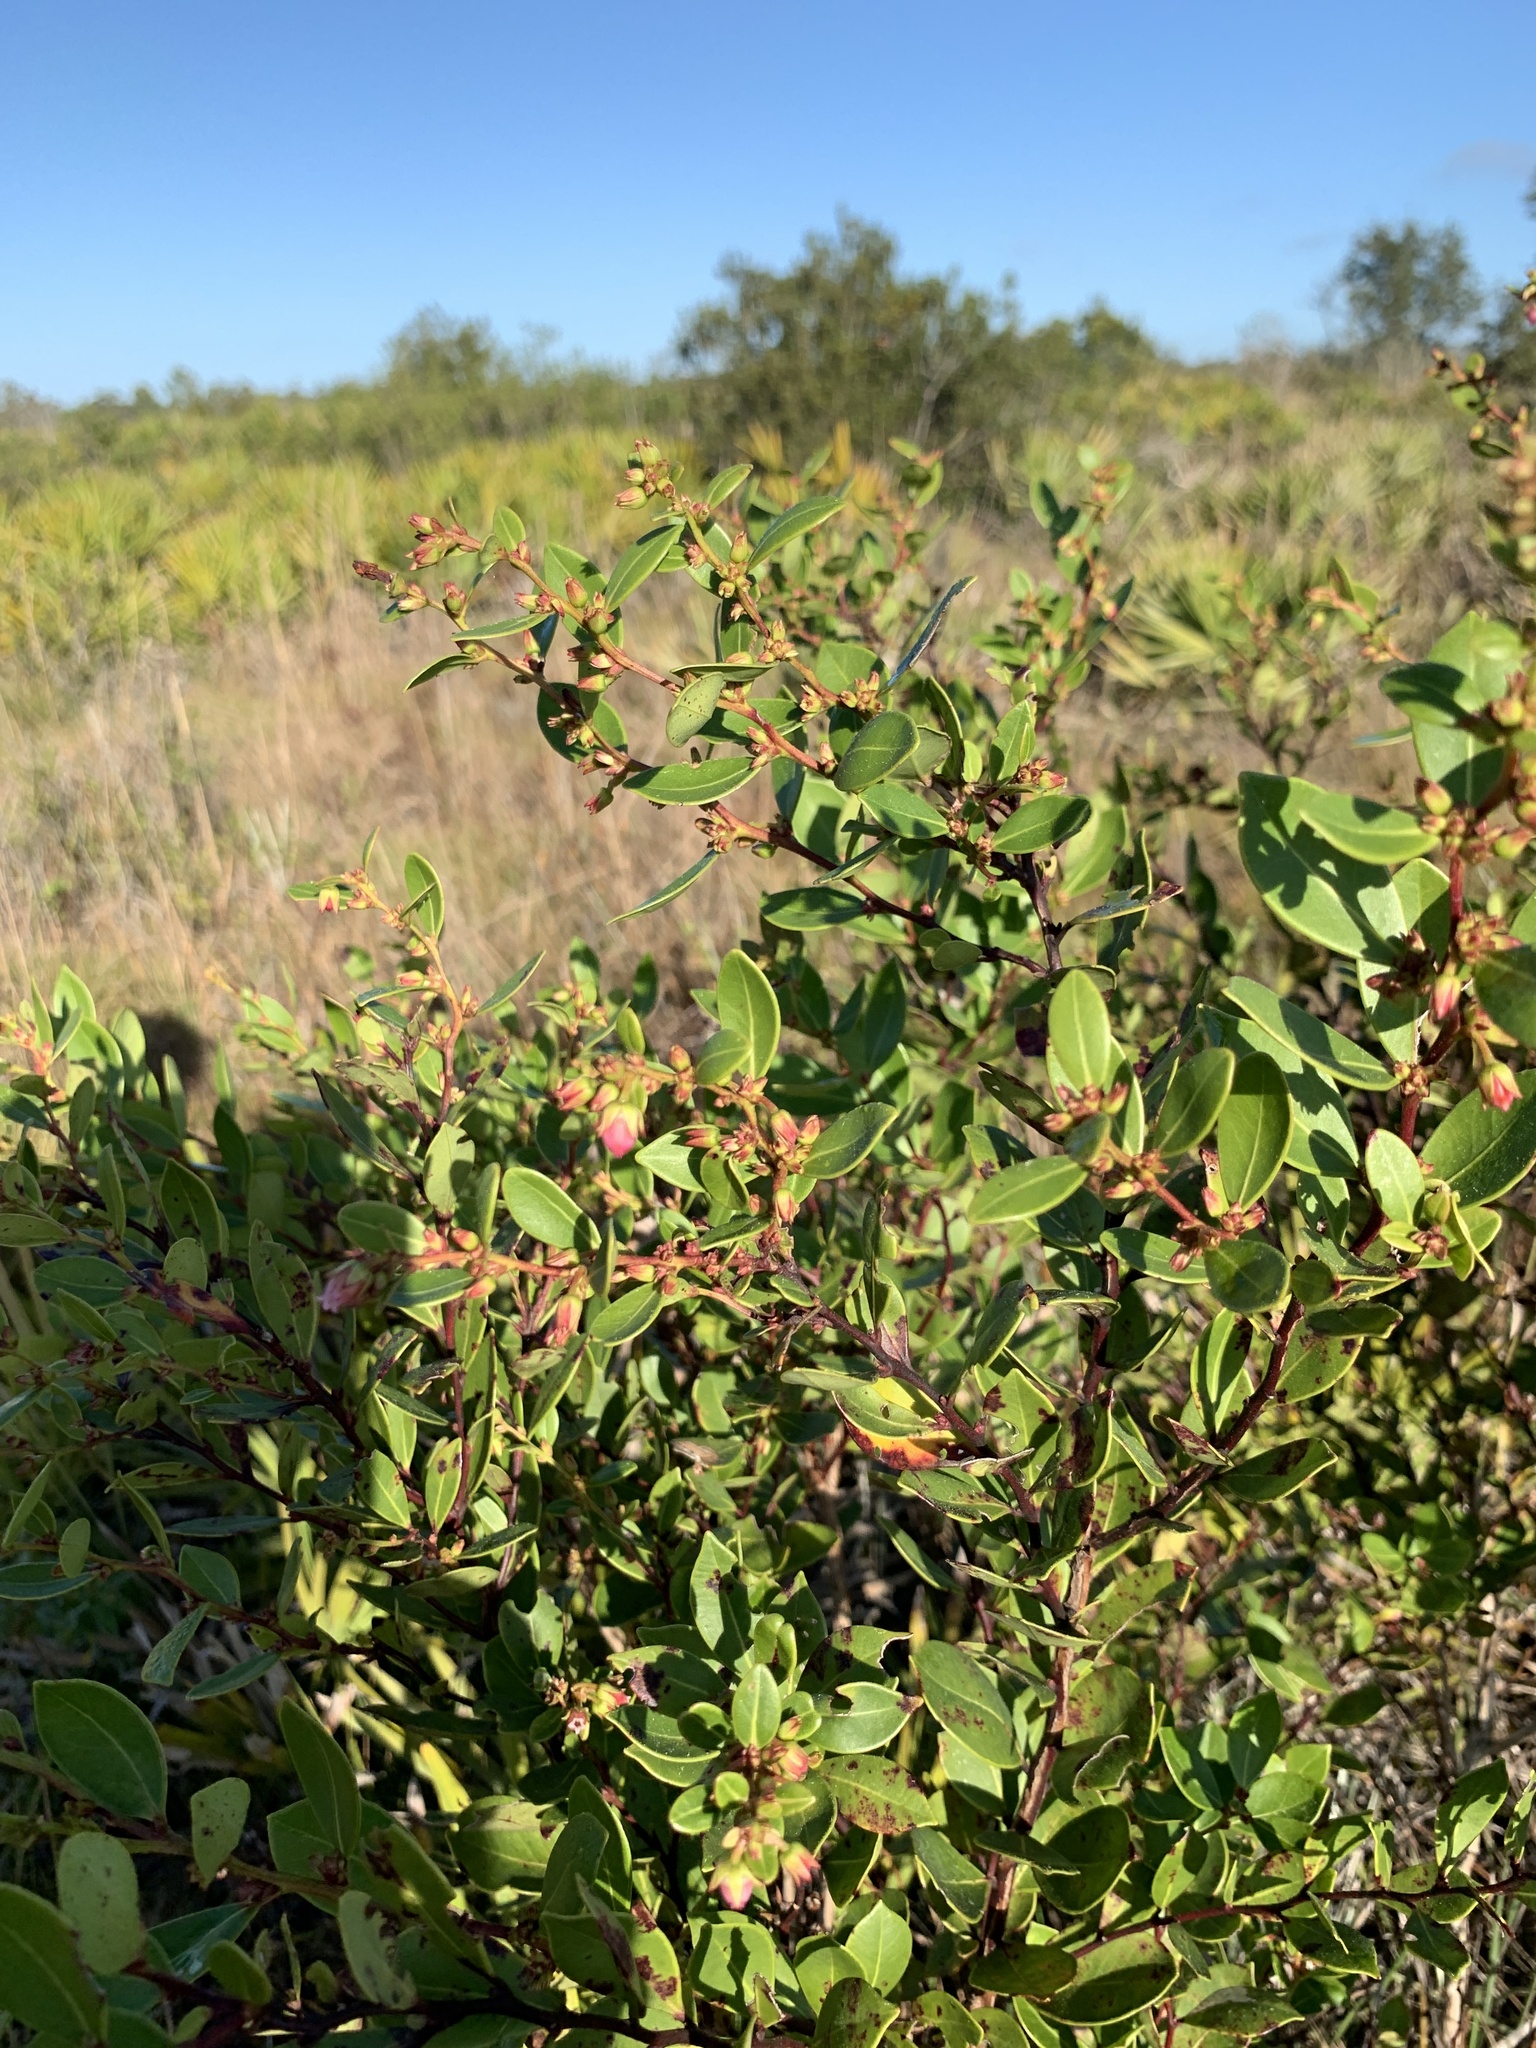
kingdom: Plantae
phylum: Tracheophyta
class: Magnoliopsida
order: Ericales
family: Ericaceae
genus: Lyonia
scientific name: Lyonia lucida
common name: Fetterbush
